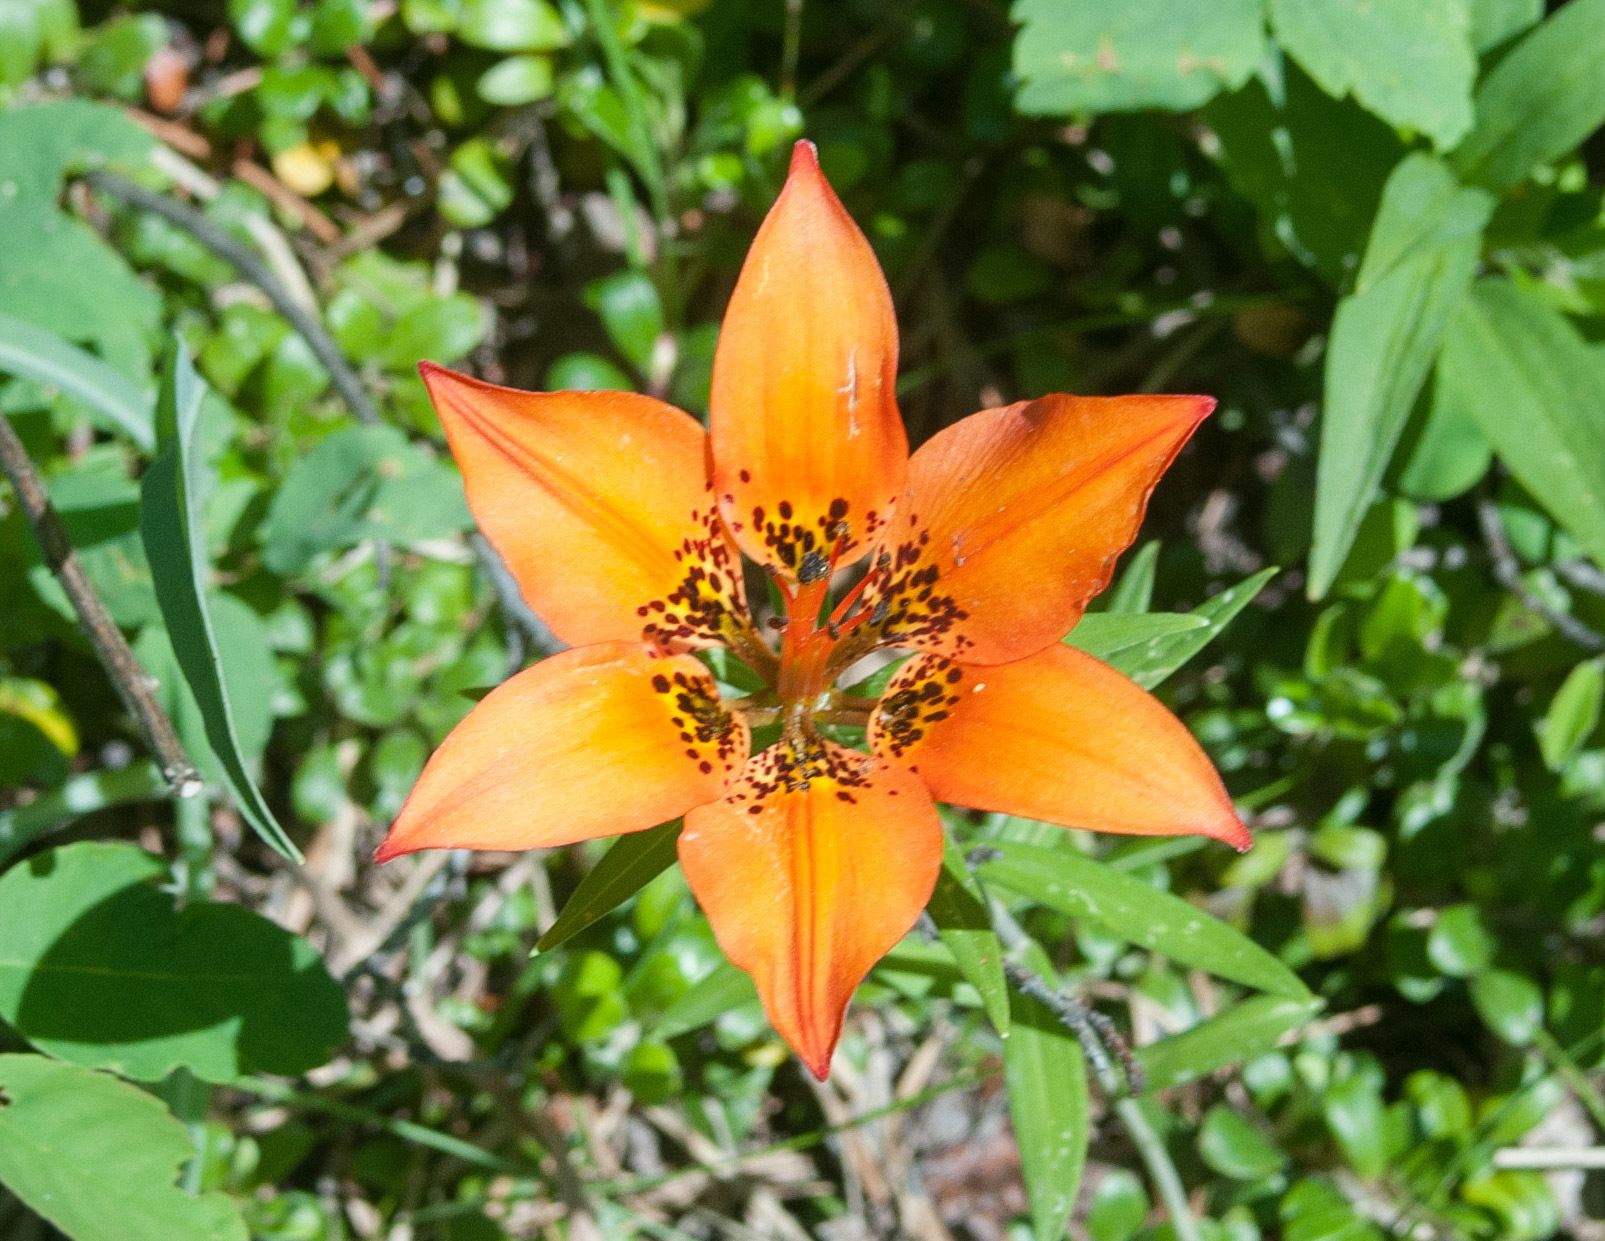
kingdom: Plantae
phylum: Tracheophyta
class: Liliopsida
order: Liliales
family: Liliaceae
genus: Lilium
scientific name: Lilium philadelphicum
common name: Red lily
